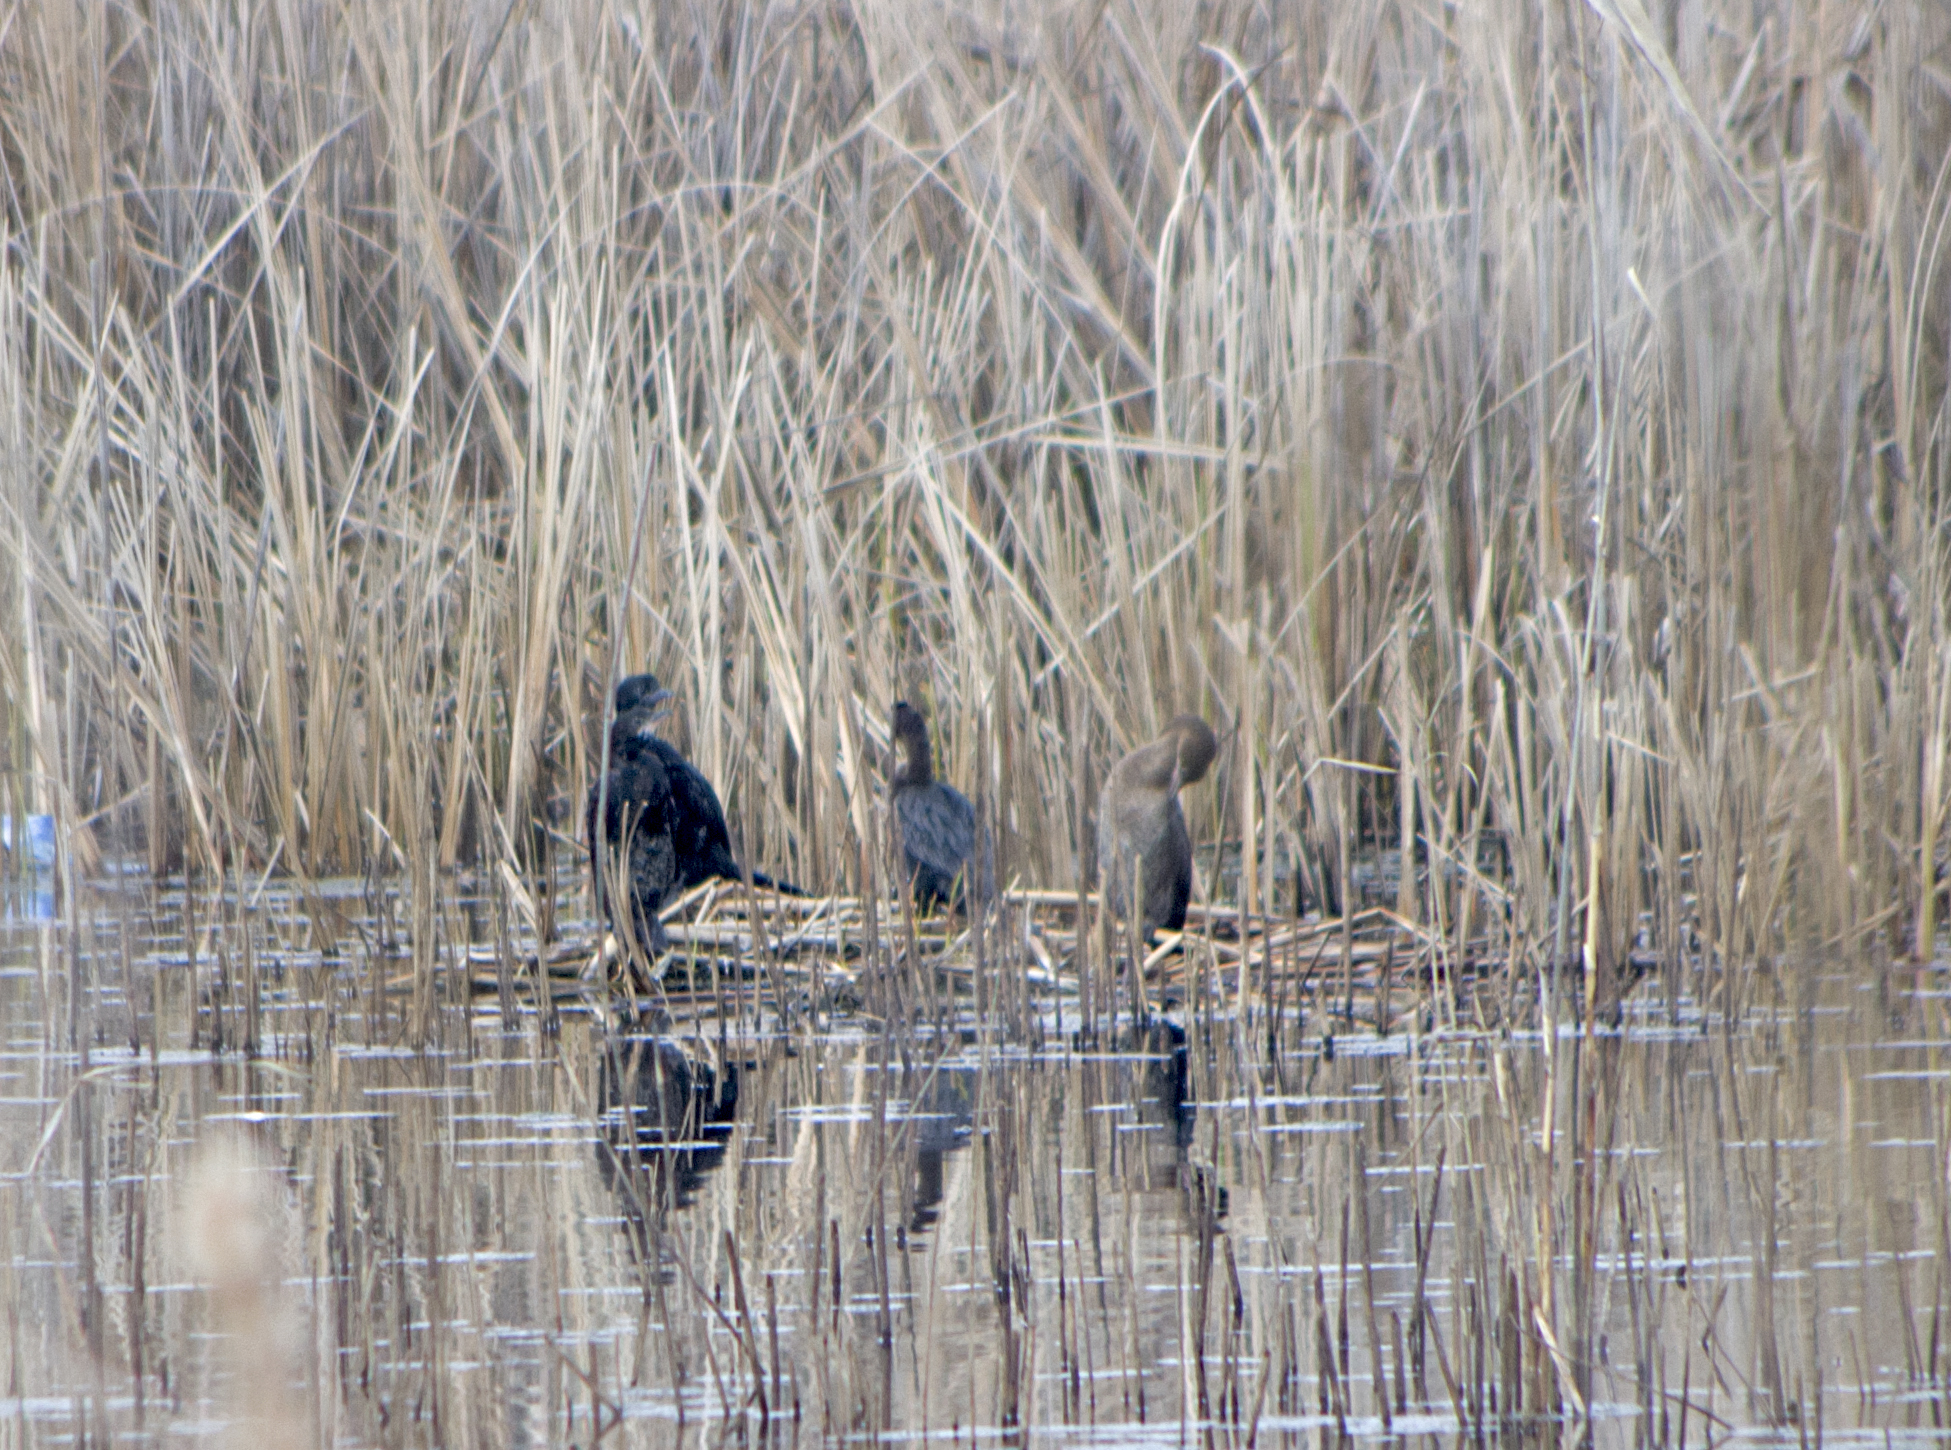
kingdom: Animalia
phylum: Chordata
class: Aves
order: Suliformes
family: Phalacrocoracidae
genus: Microcarbo
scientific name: Microcarbo pygmaeus
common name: Pygmy cormorant
